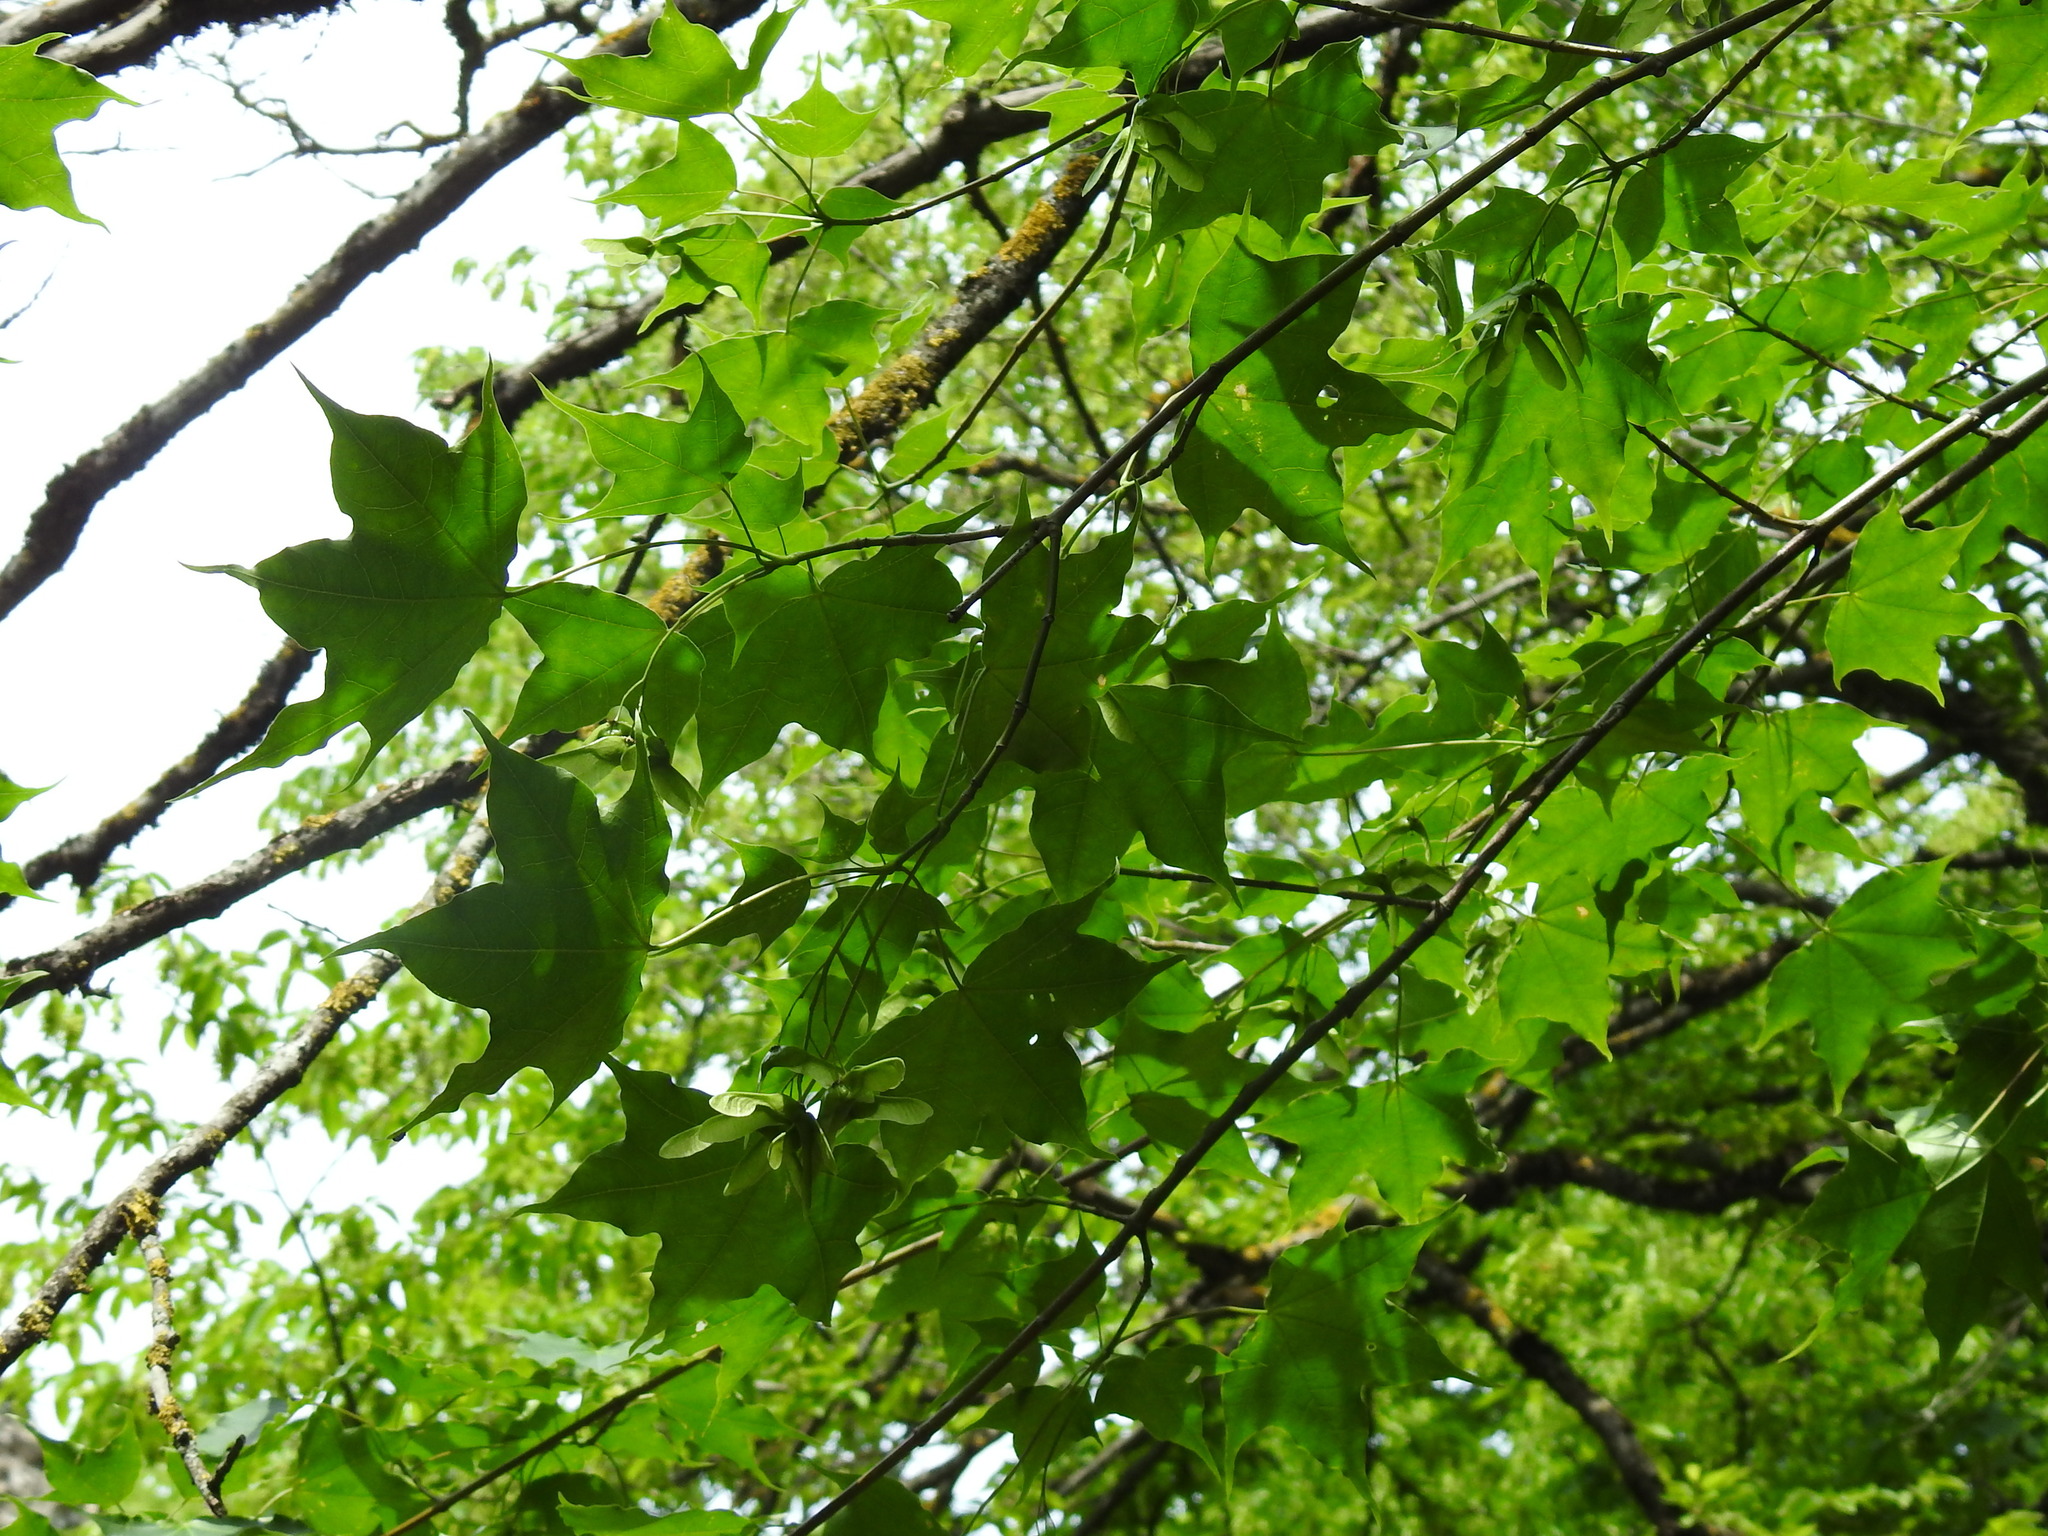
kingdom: Plantae
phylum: Tracheophyta
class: Magnoliopsida
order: Sapindales
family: Sapindaceae
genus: Acer
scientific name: Acer cappadocicum
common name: Cappadocian maple
